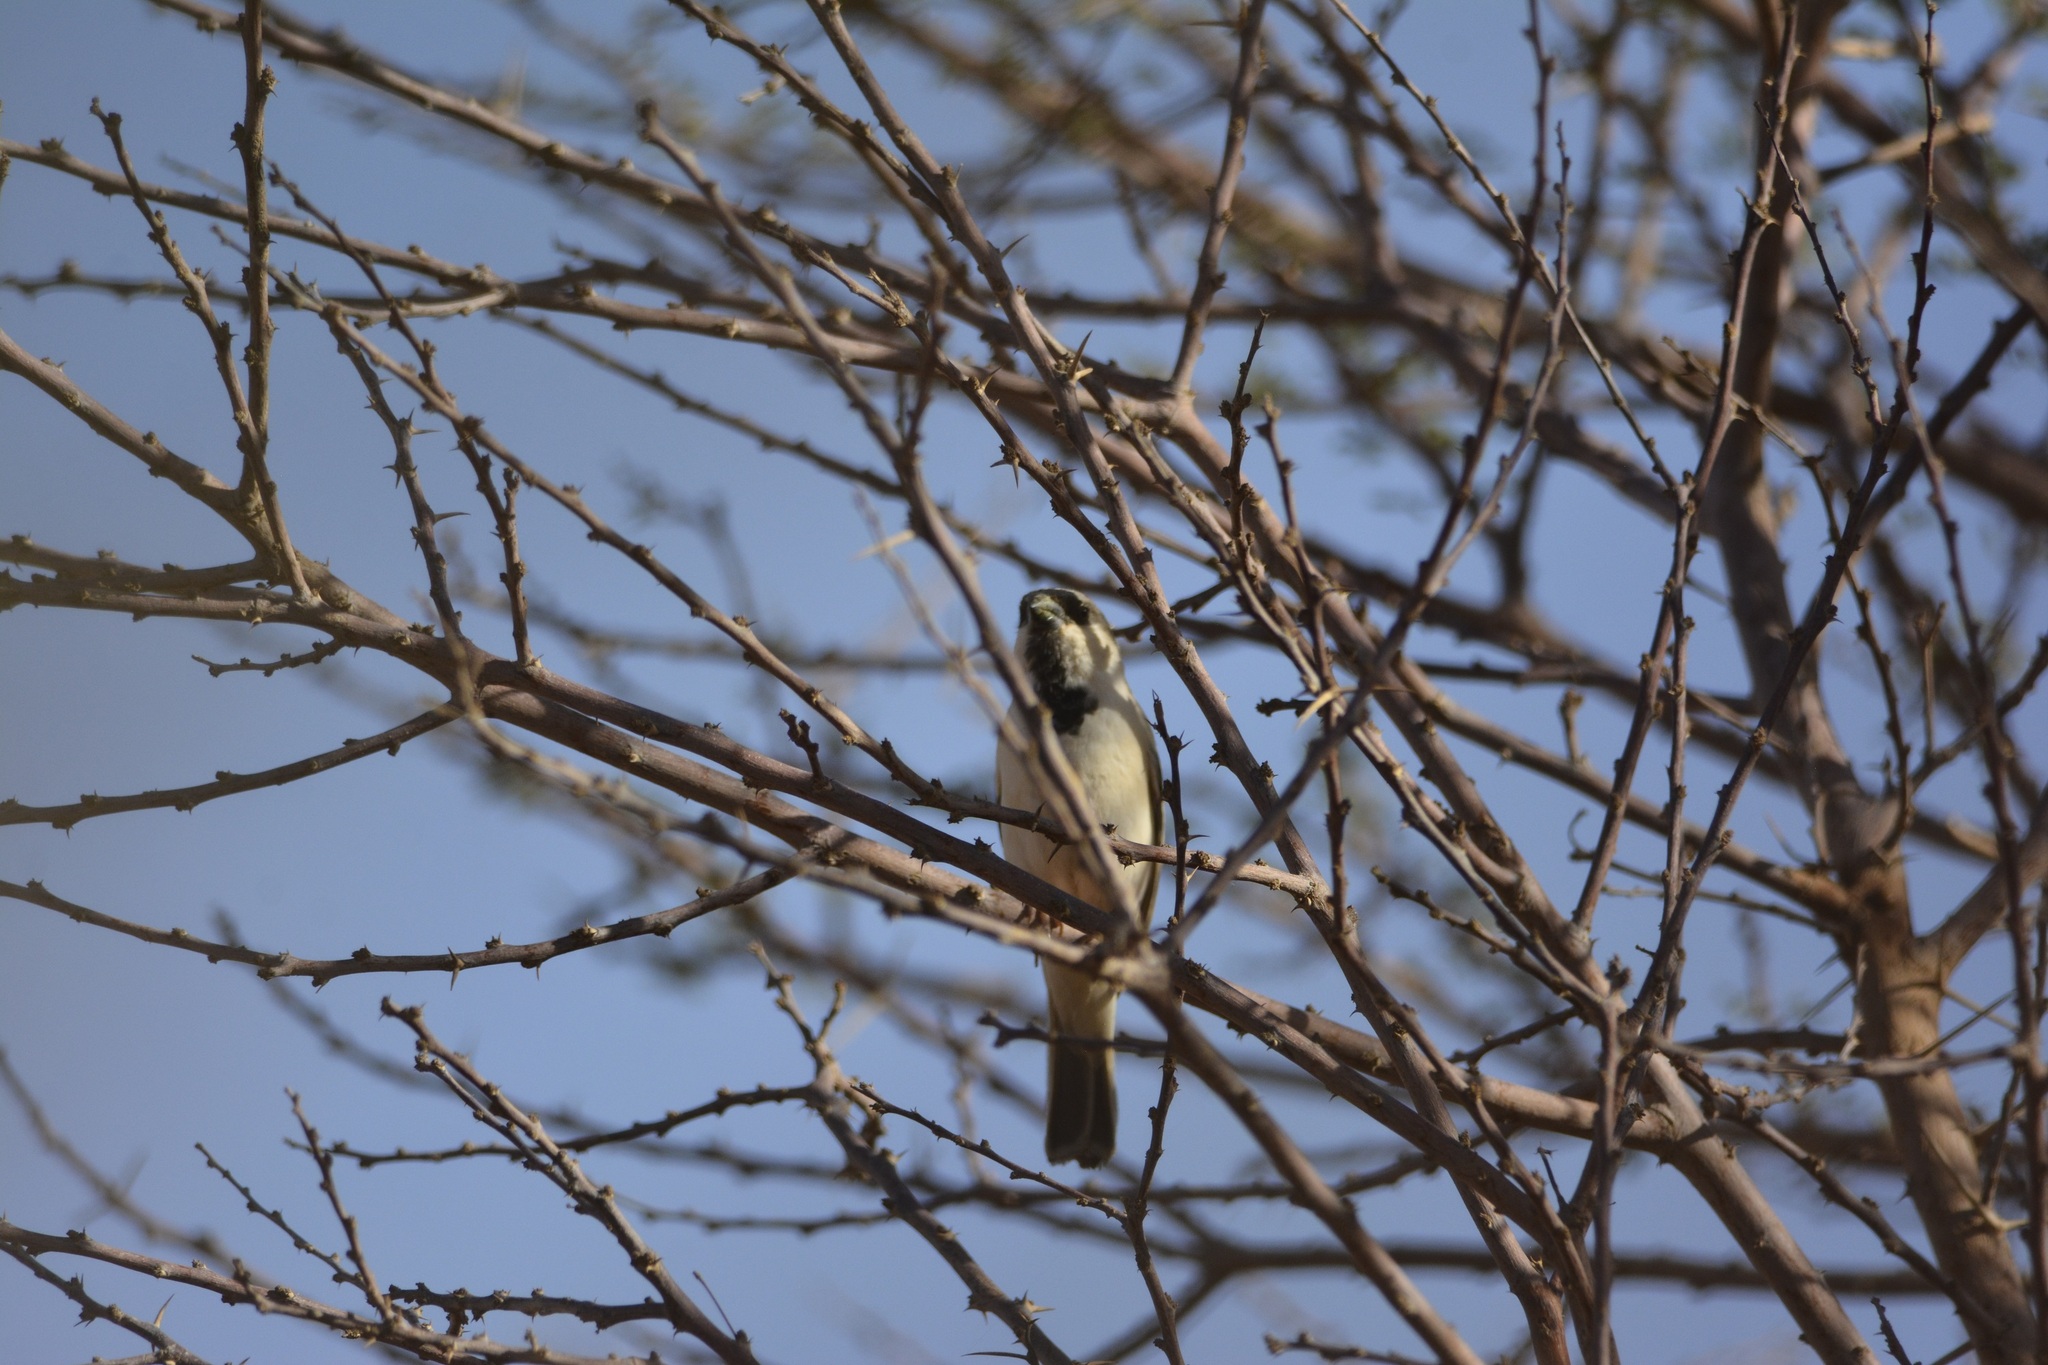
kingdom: Animalia
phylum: Chordata
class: Aves
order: Passeriformes
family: Passeridae
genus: Passer
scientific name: Passer simplex
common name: Desert sparrow
